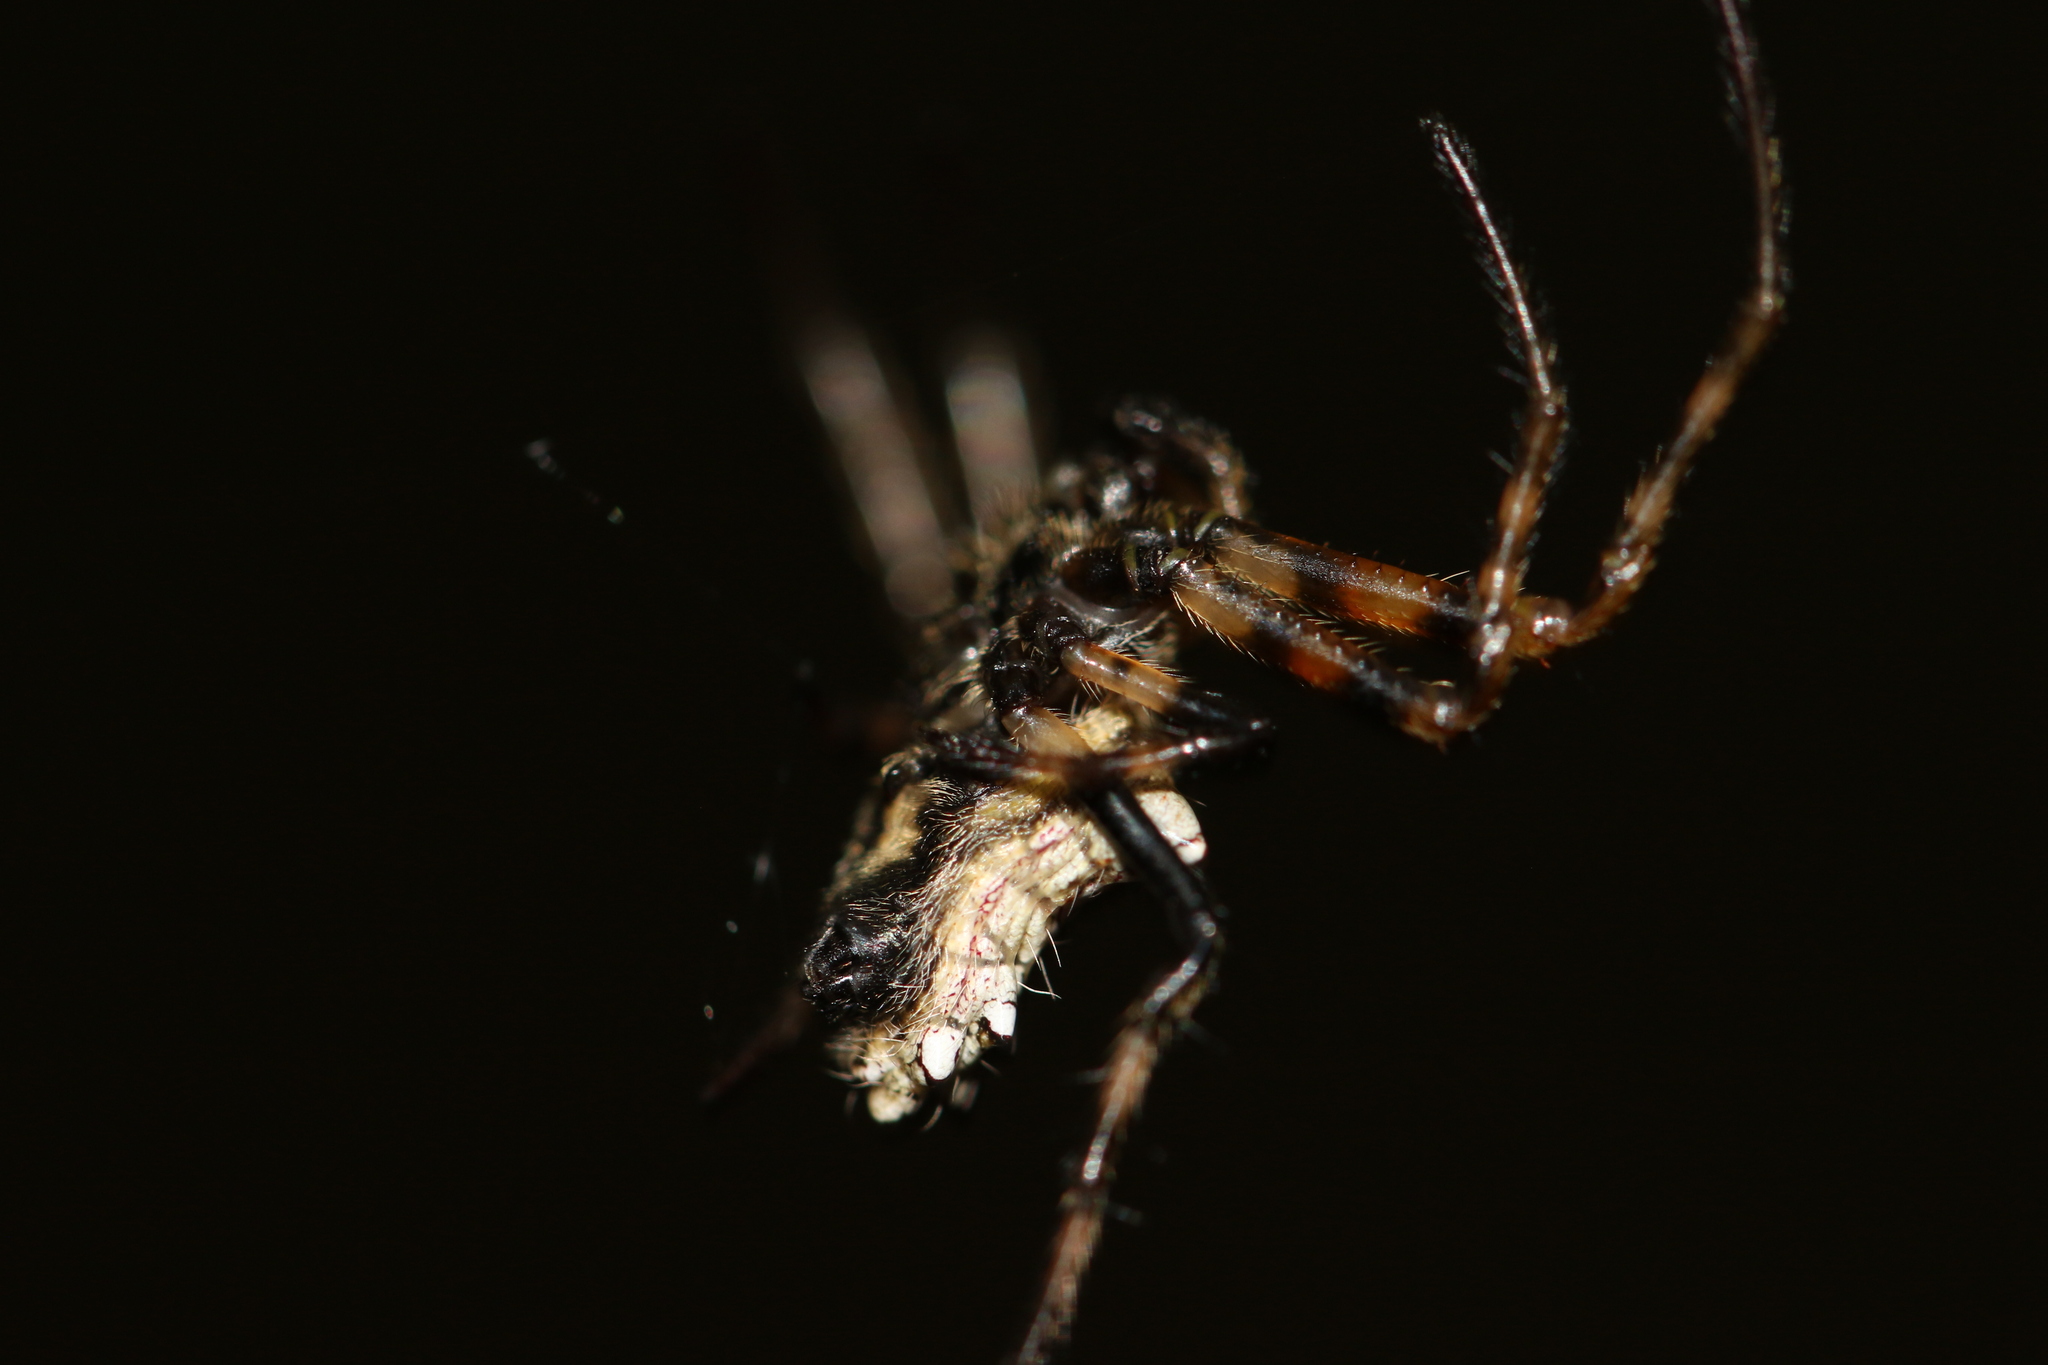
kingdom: Animalia
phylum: Arthropoda
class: Arachnida
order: Araneae
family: Araneidae
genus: Verrucosa
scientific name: Verrucosa scapofracta
